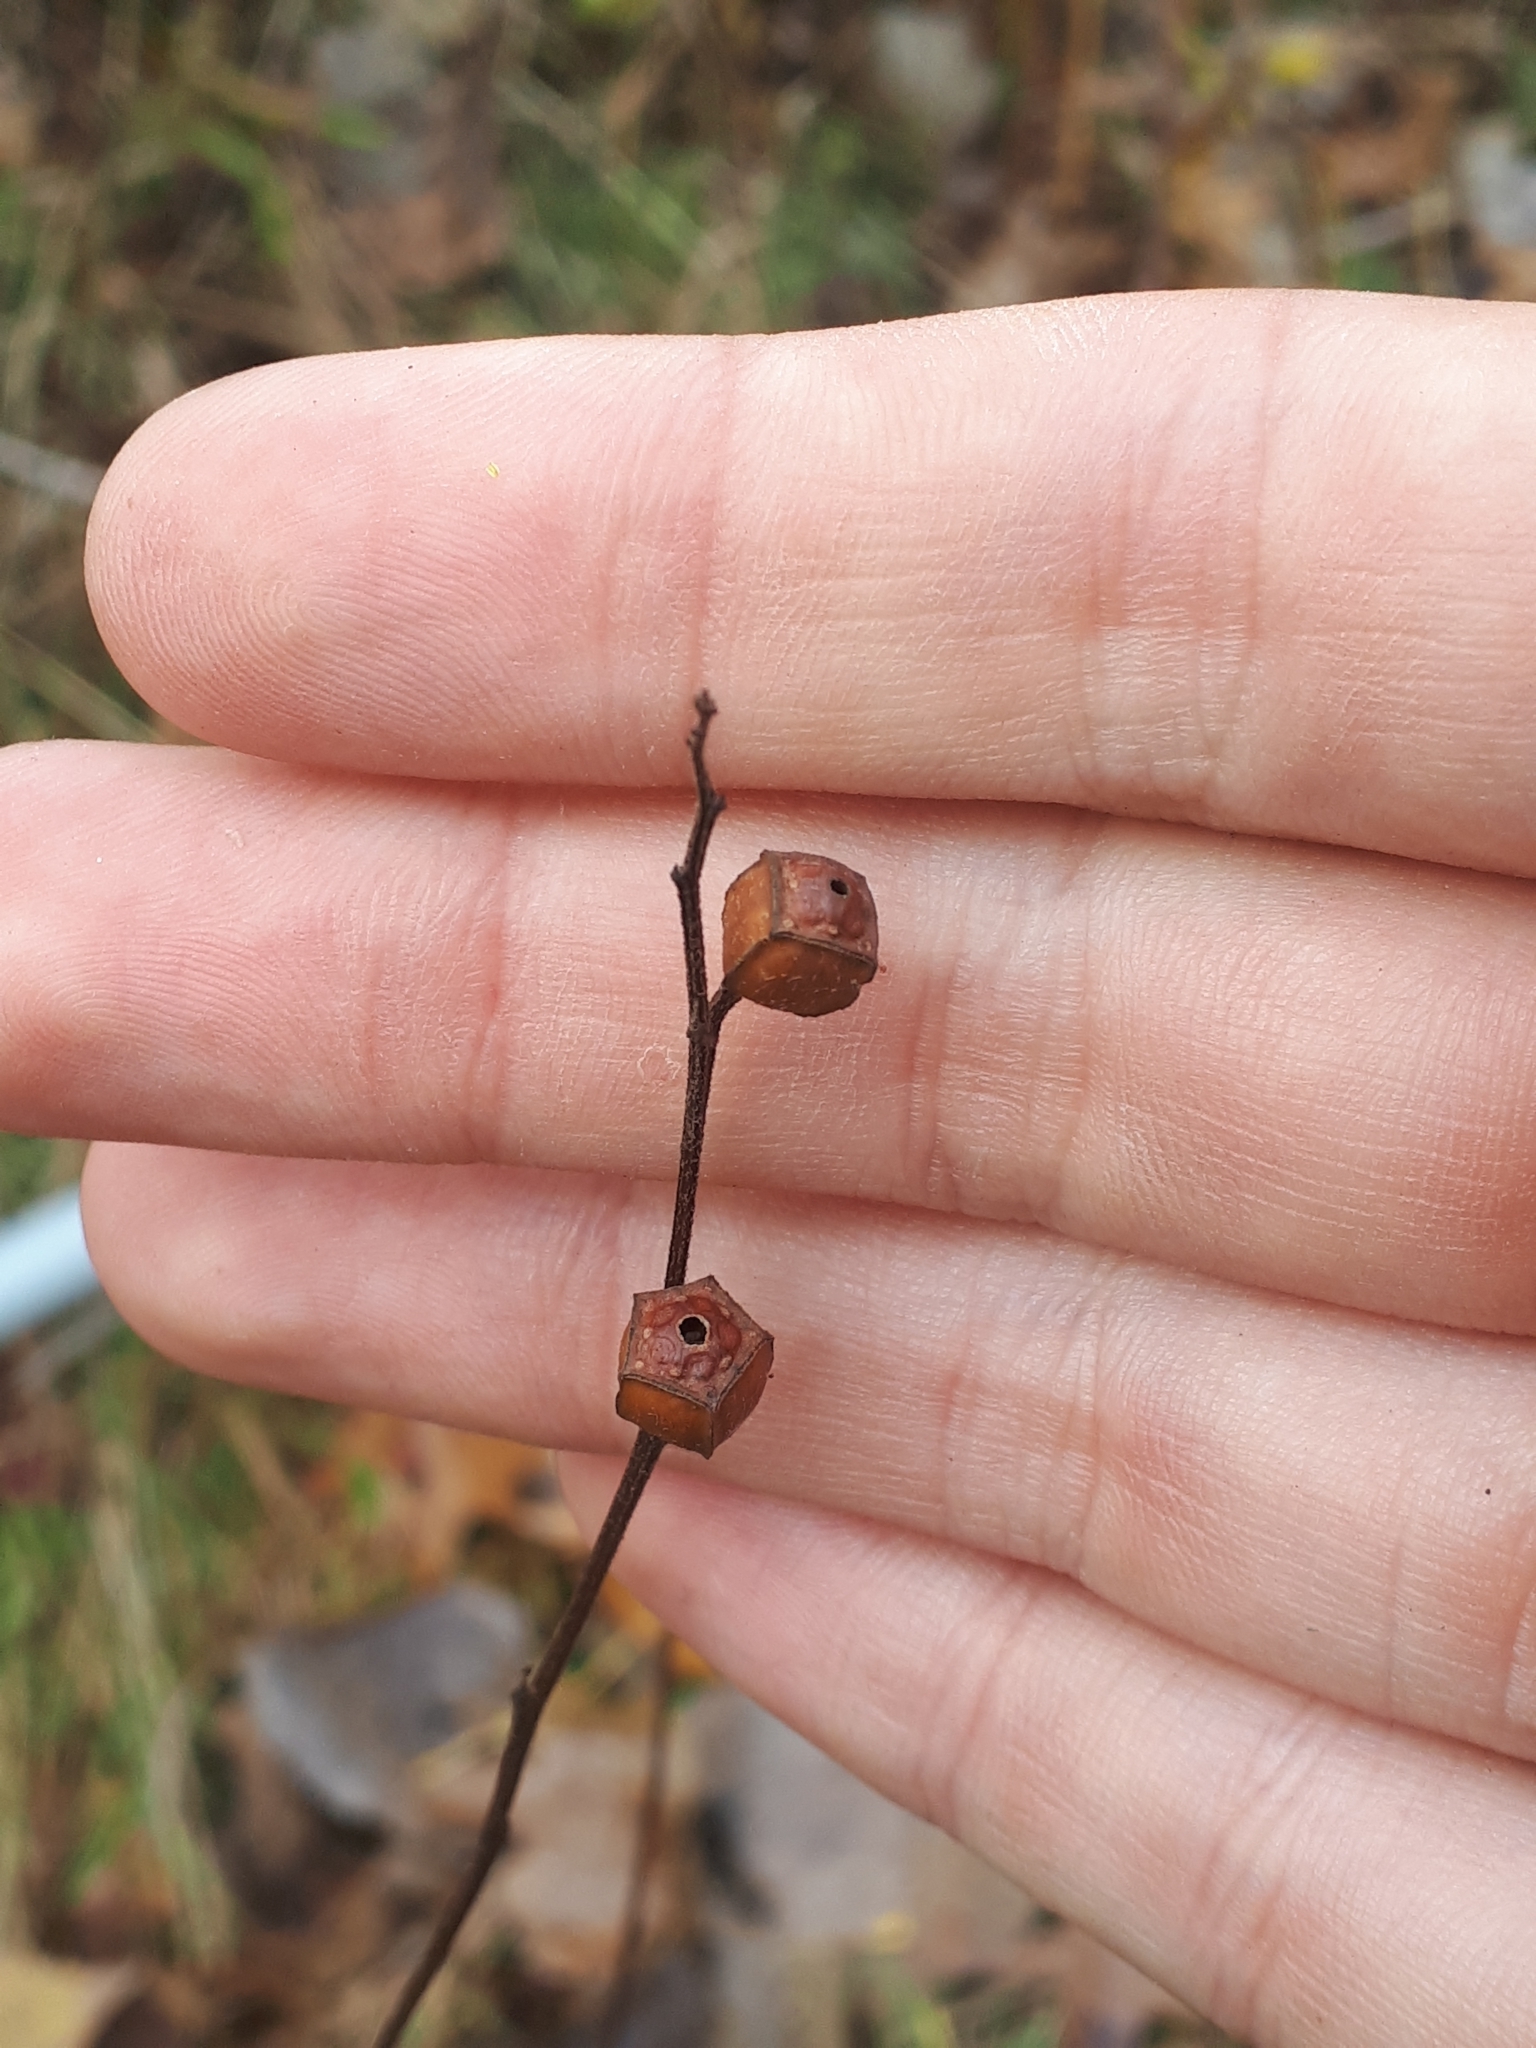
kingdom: Plantae
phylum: Tracheophyta
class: Magnoliopsida
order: Myrtales
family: Onagraceae
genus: Ludwigia
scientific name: Ludwigia alternifolia
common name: Rattlebox
